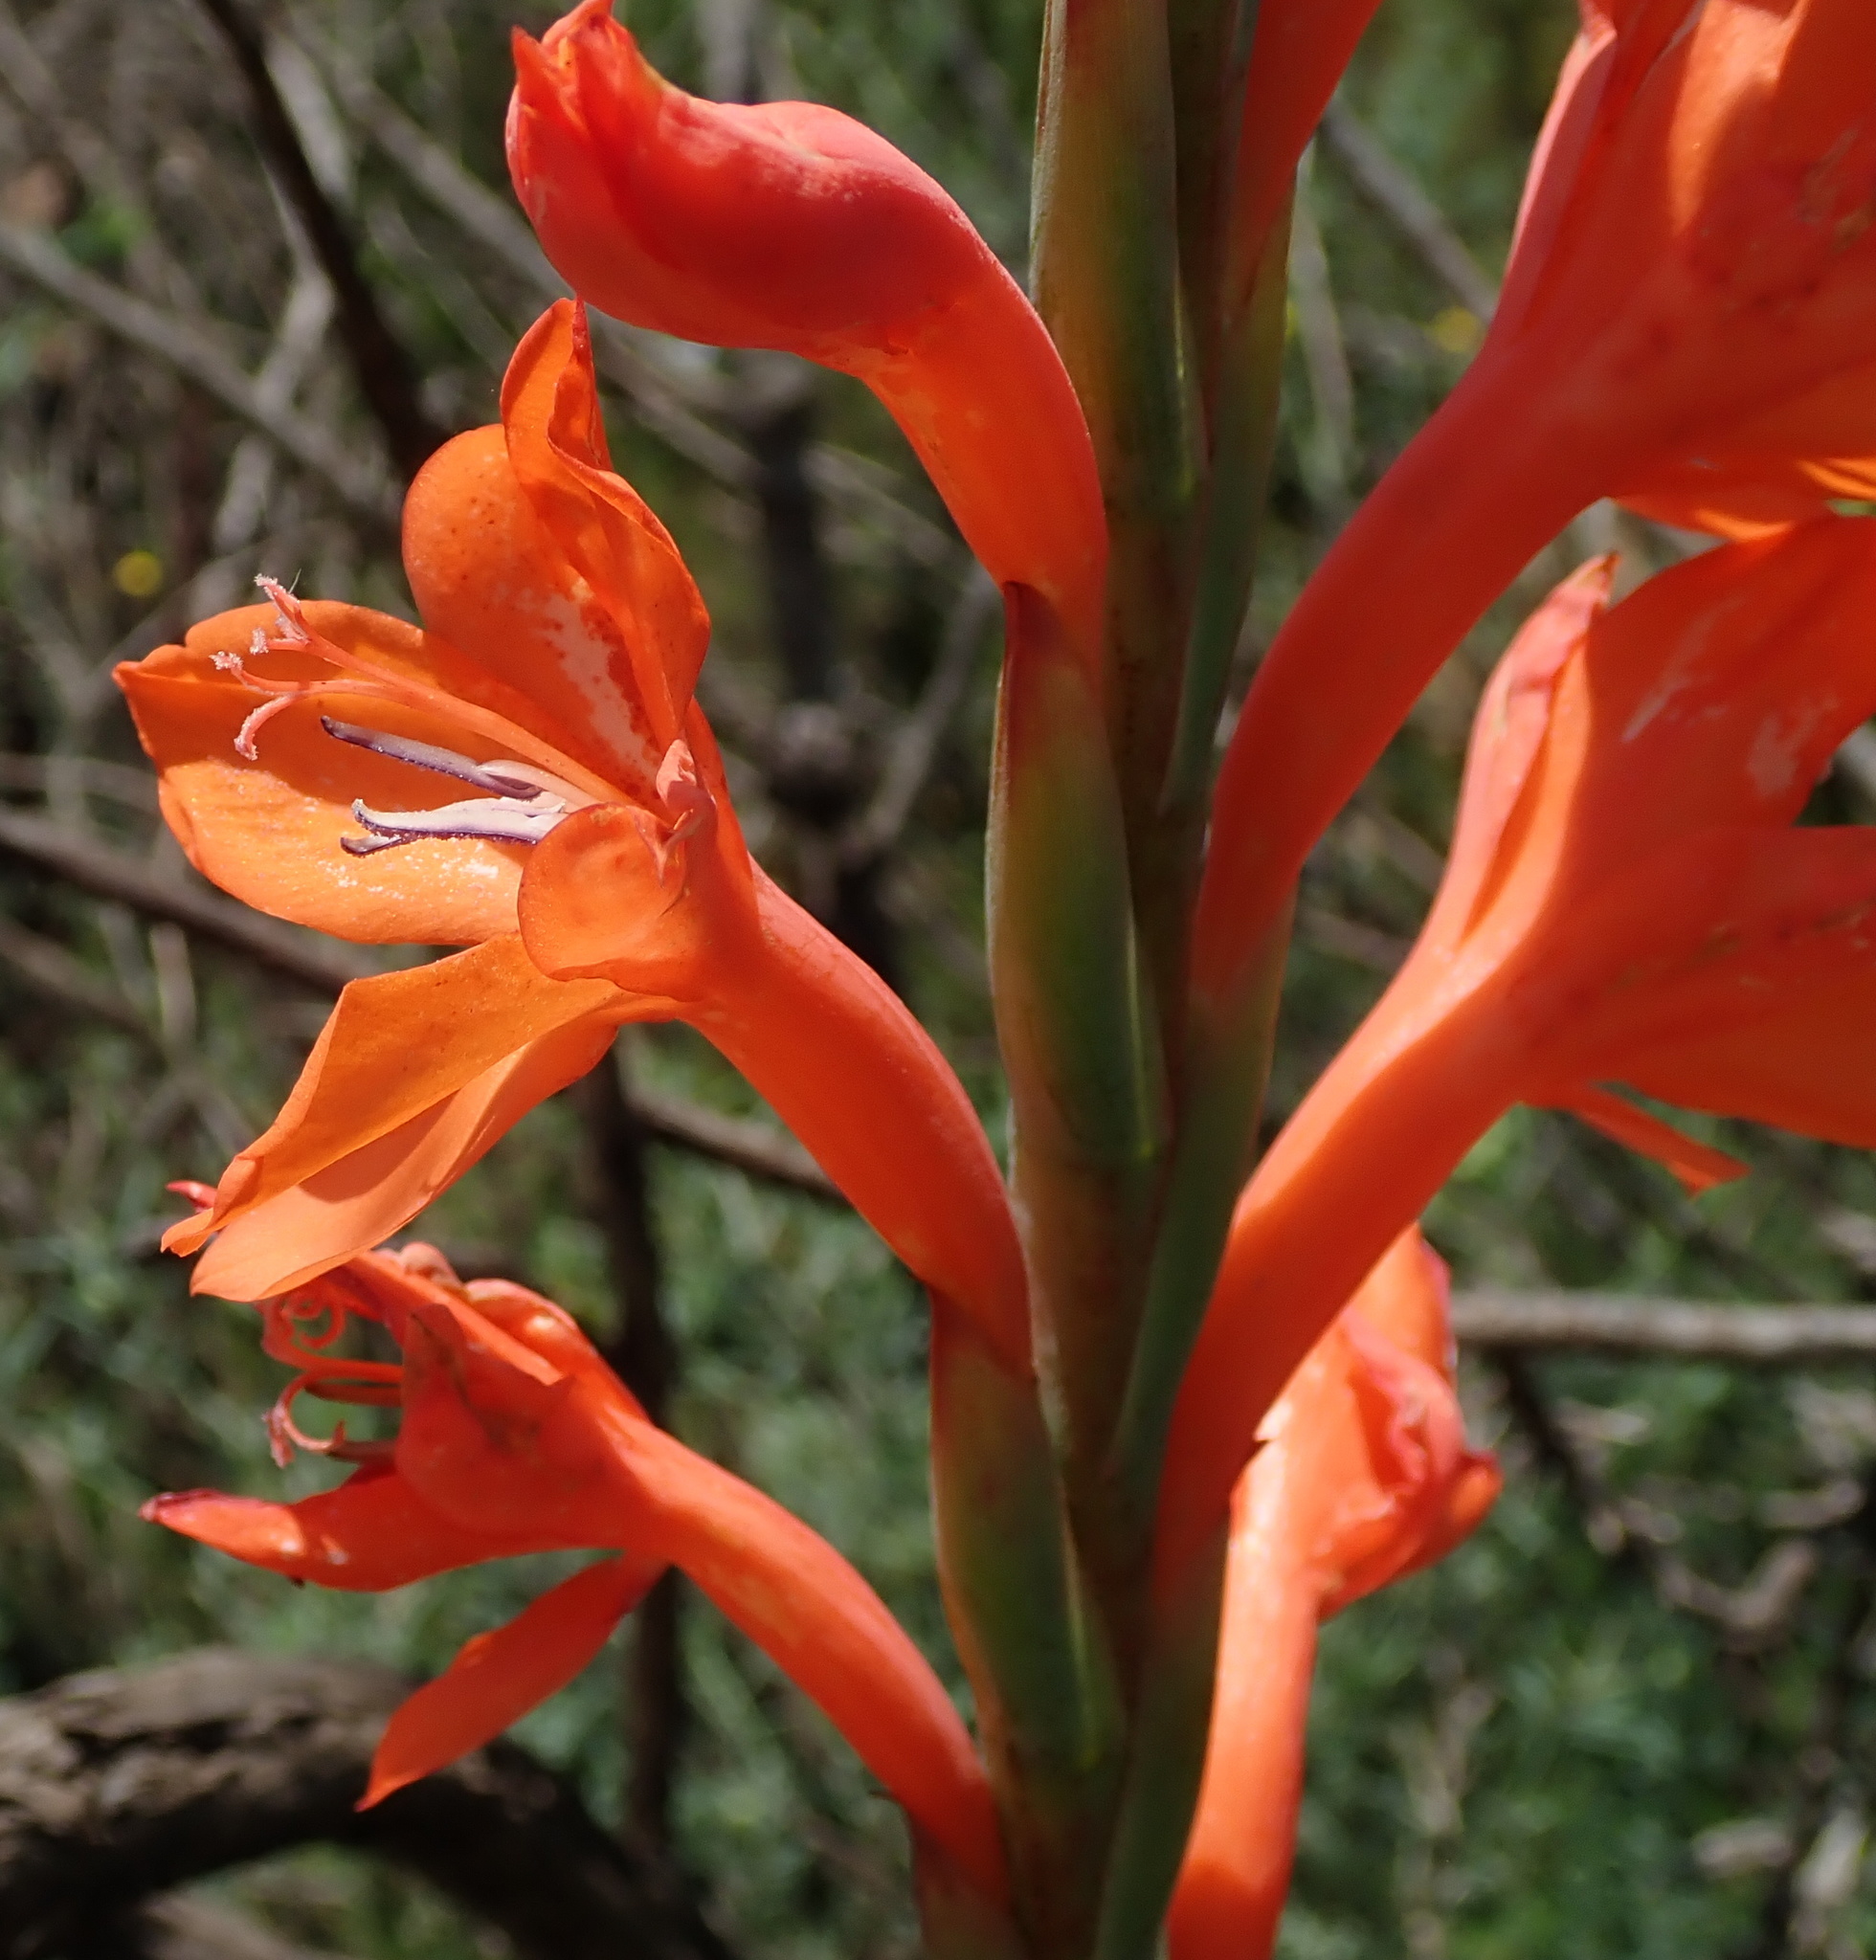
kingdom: Plantae
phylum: Tracheophyta
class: Liliopsida
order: Asparagales
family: Iridaceae
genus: Watsonia
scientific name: Watsonia pillansii
